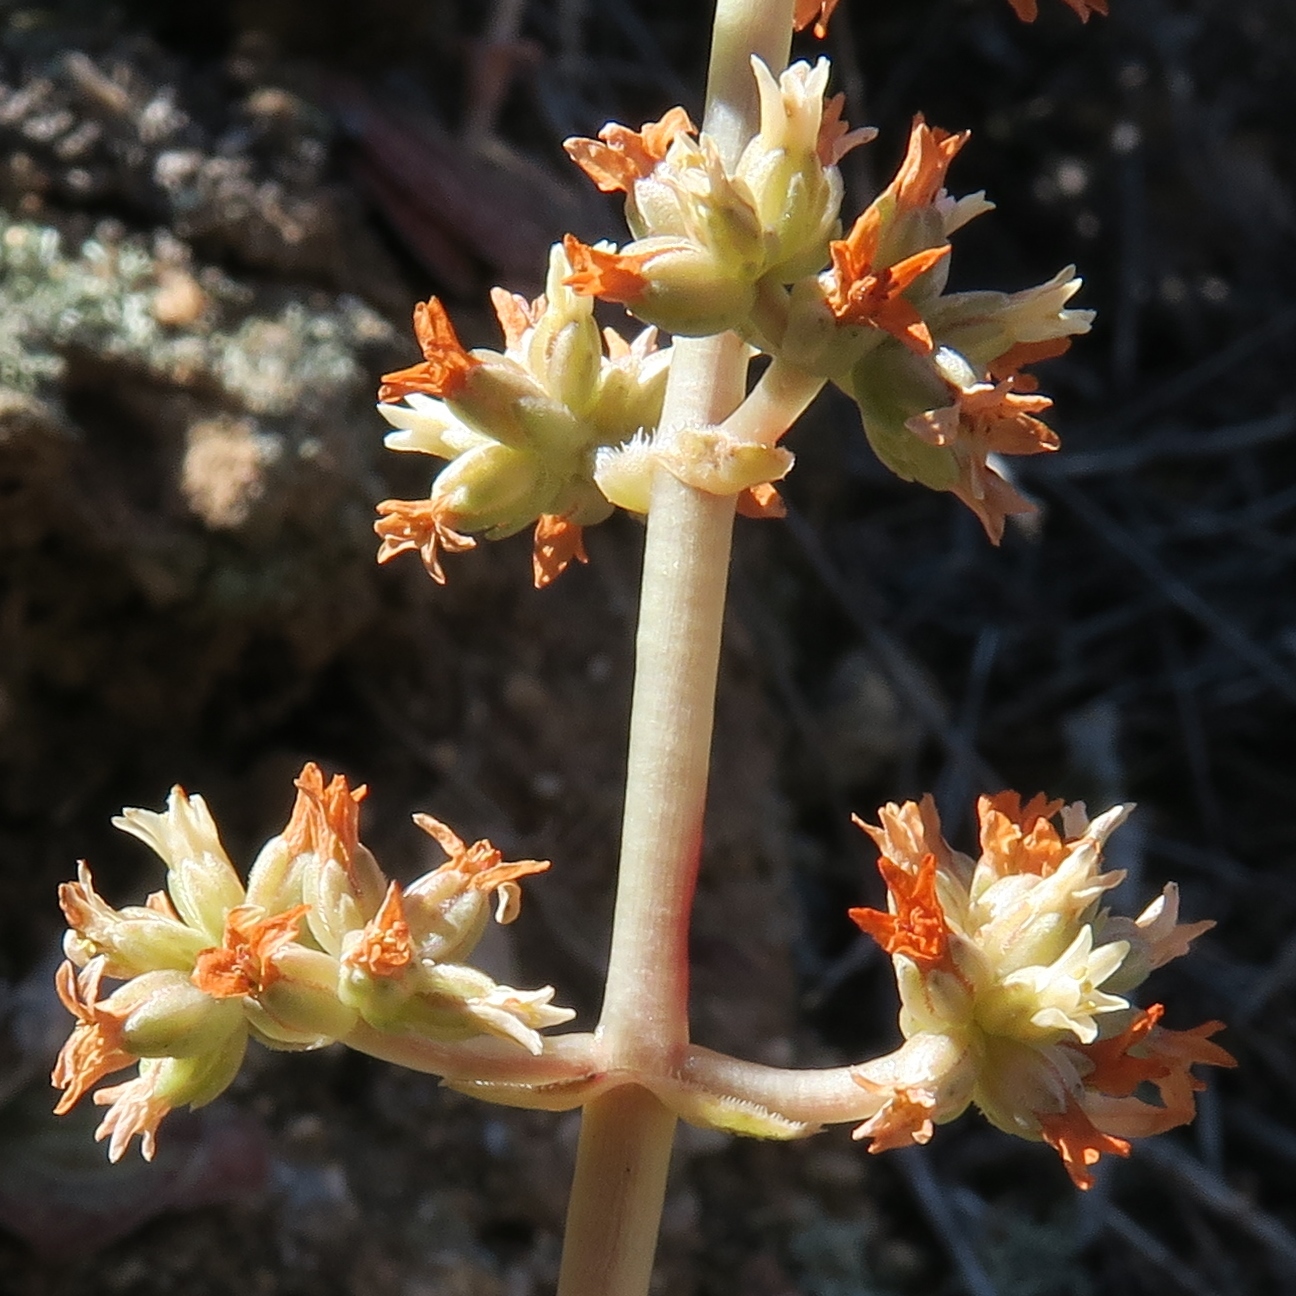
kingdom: Plantae
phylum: Tracheophyta
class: Magnoliopsida
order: Saxifragales
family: Crassulaceae
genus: Crassula
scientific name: Crassula pseudohemisphaerica
